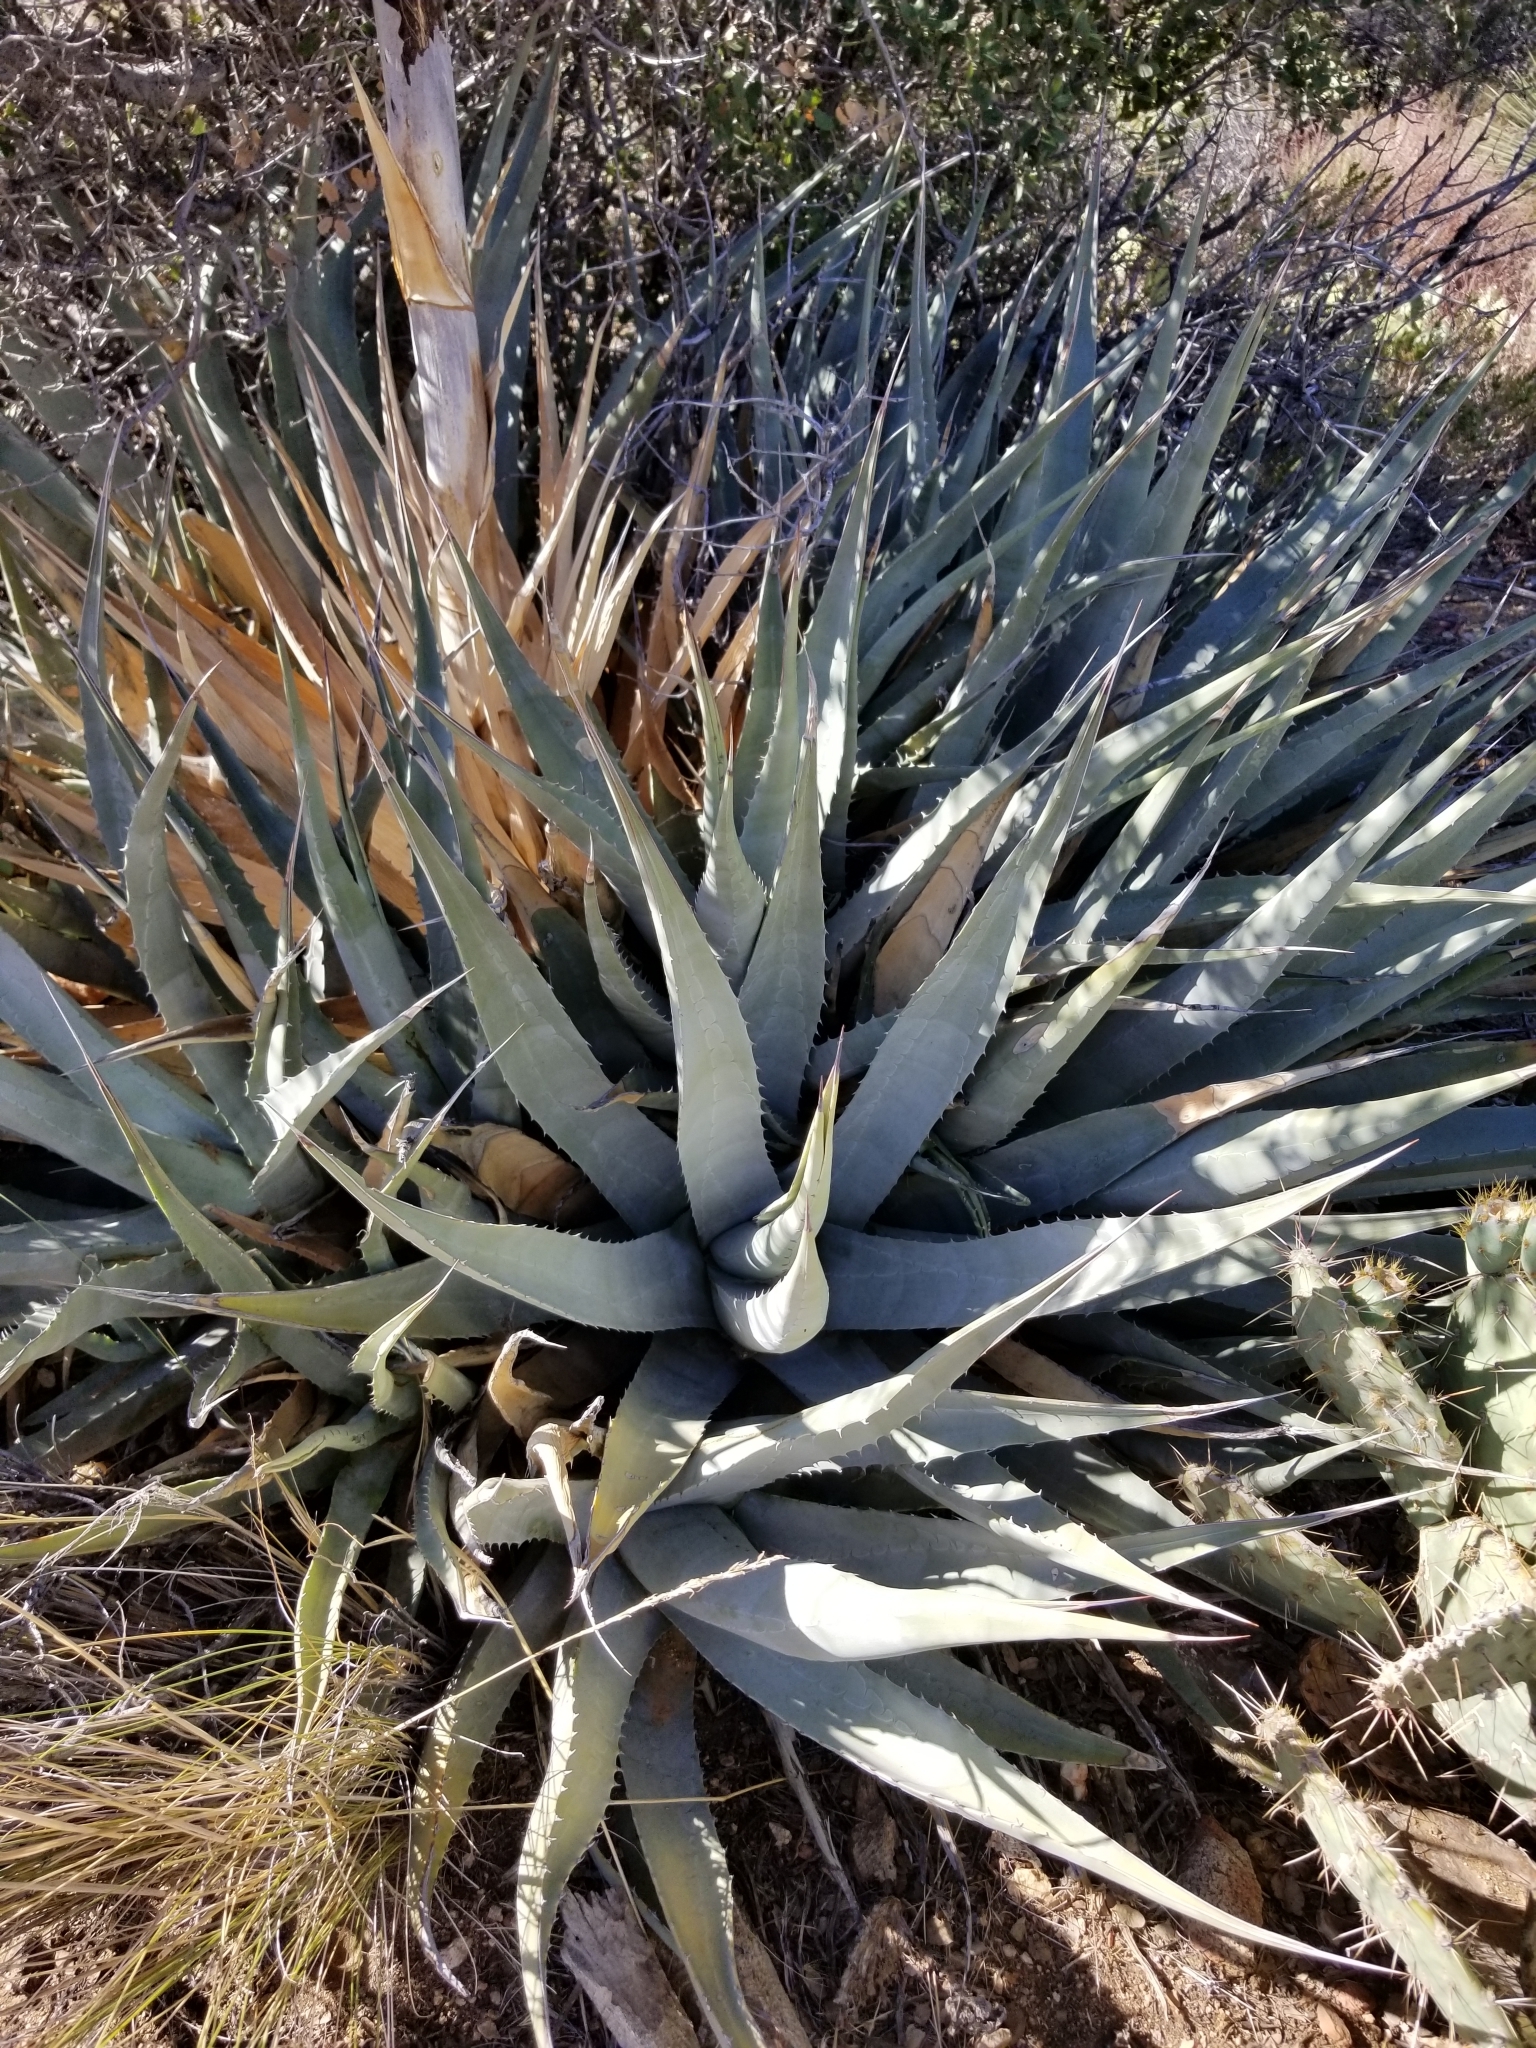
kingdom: Plantae
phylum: Tracheophyta
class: Liliopsida
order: Asparagales
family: Asparagaceae
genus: Agave
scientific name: Agave deserti
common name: Desert agave
